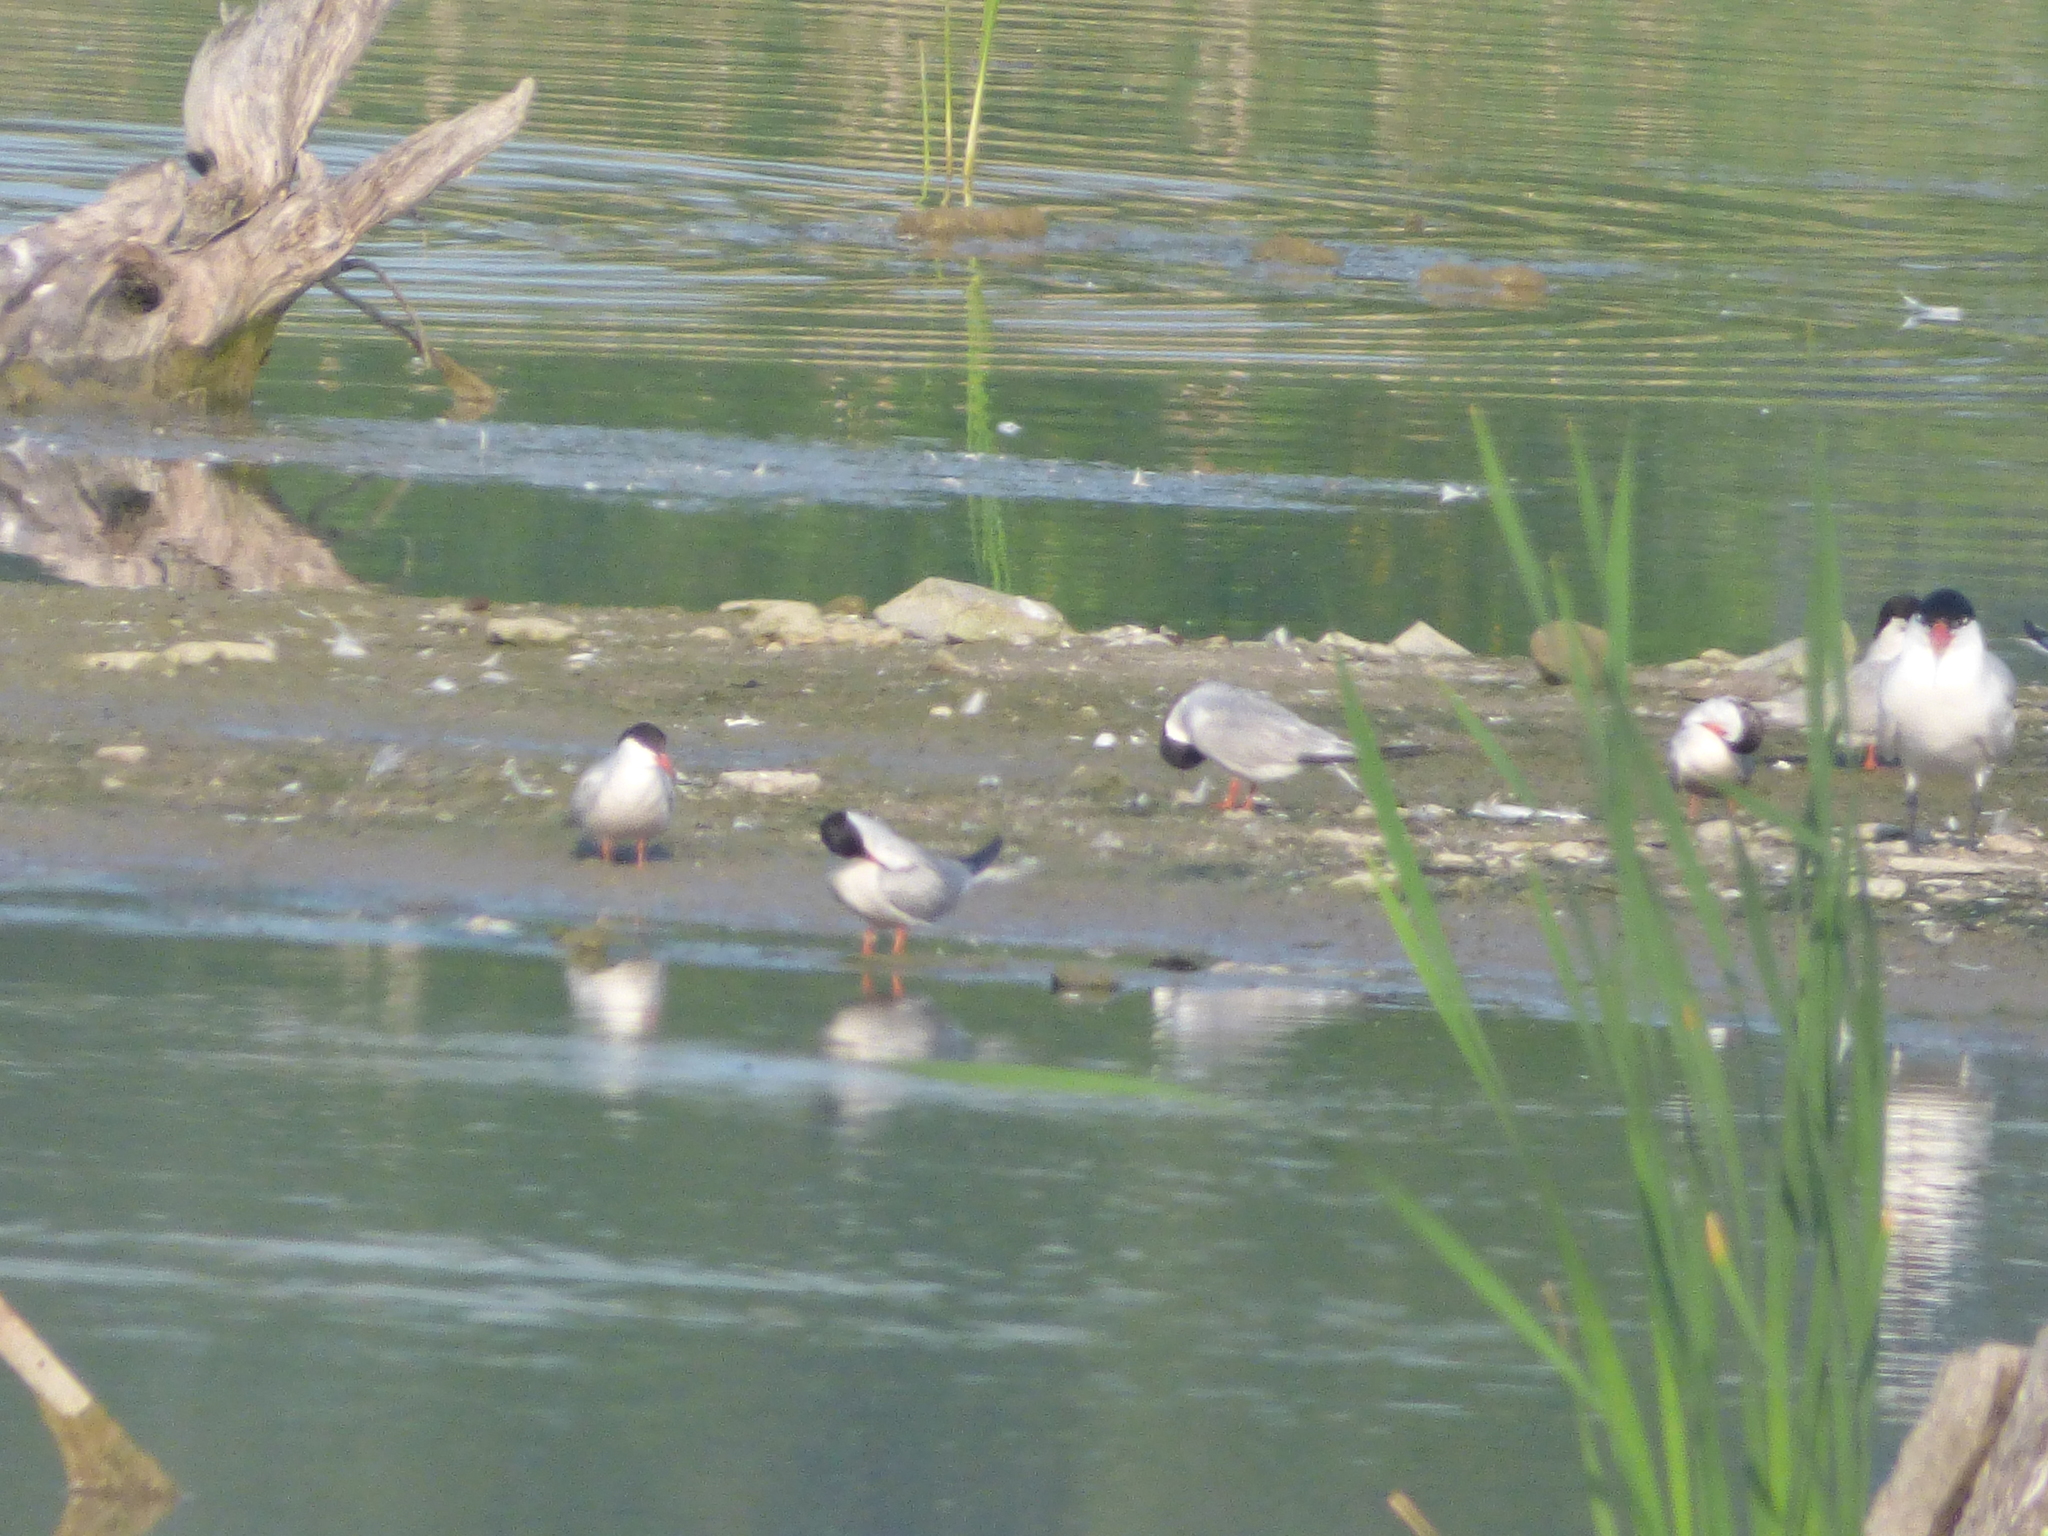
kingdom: Animalia
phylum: Chordata
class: Aves
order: Charadriiformes
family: Laridae
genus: Sterna
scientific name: Sterna hirundo
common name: Common tern
